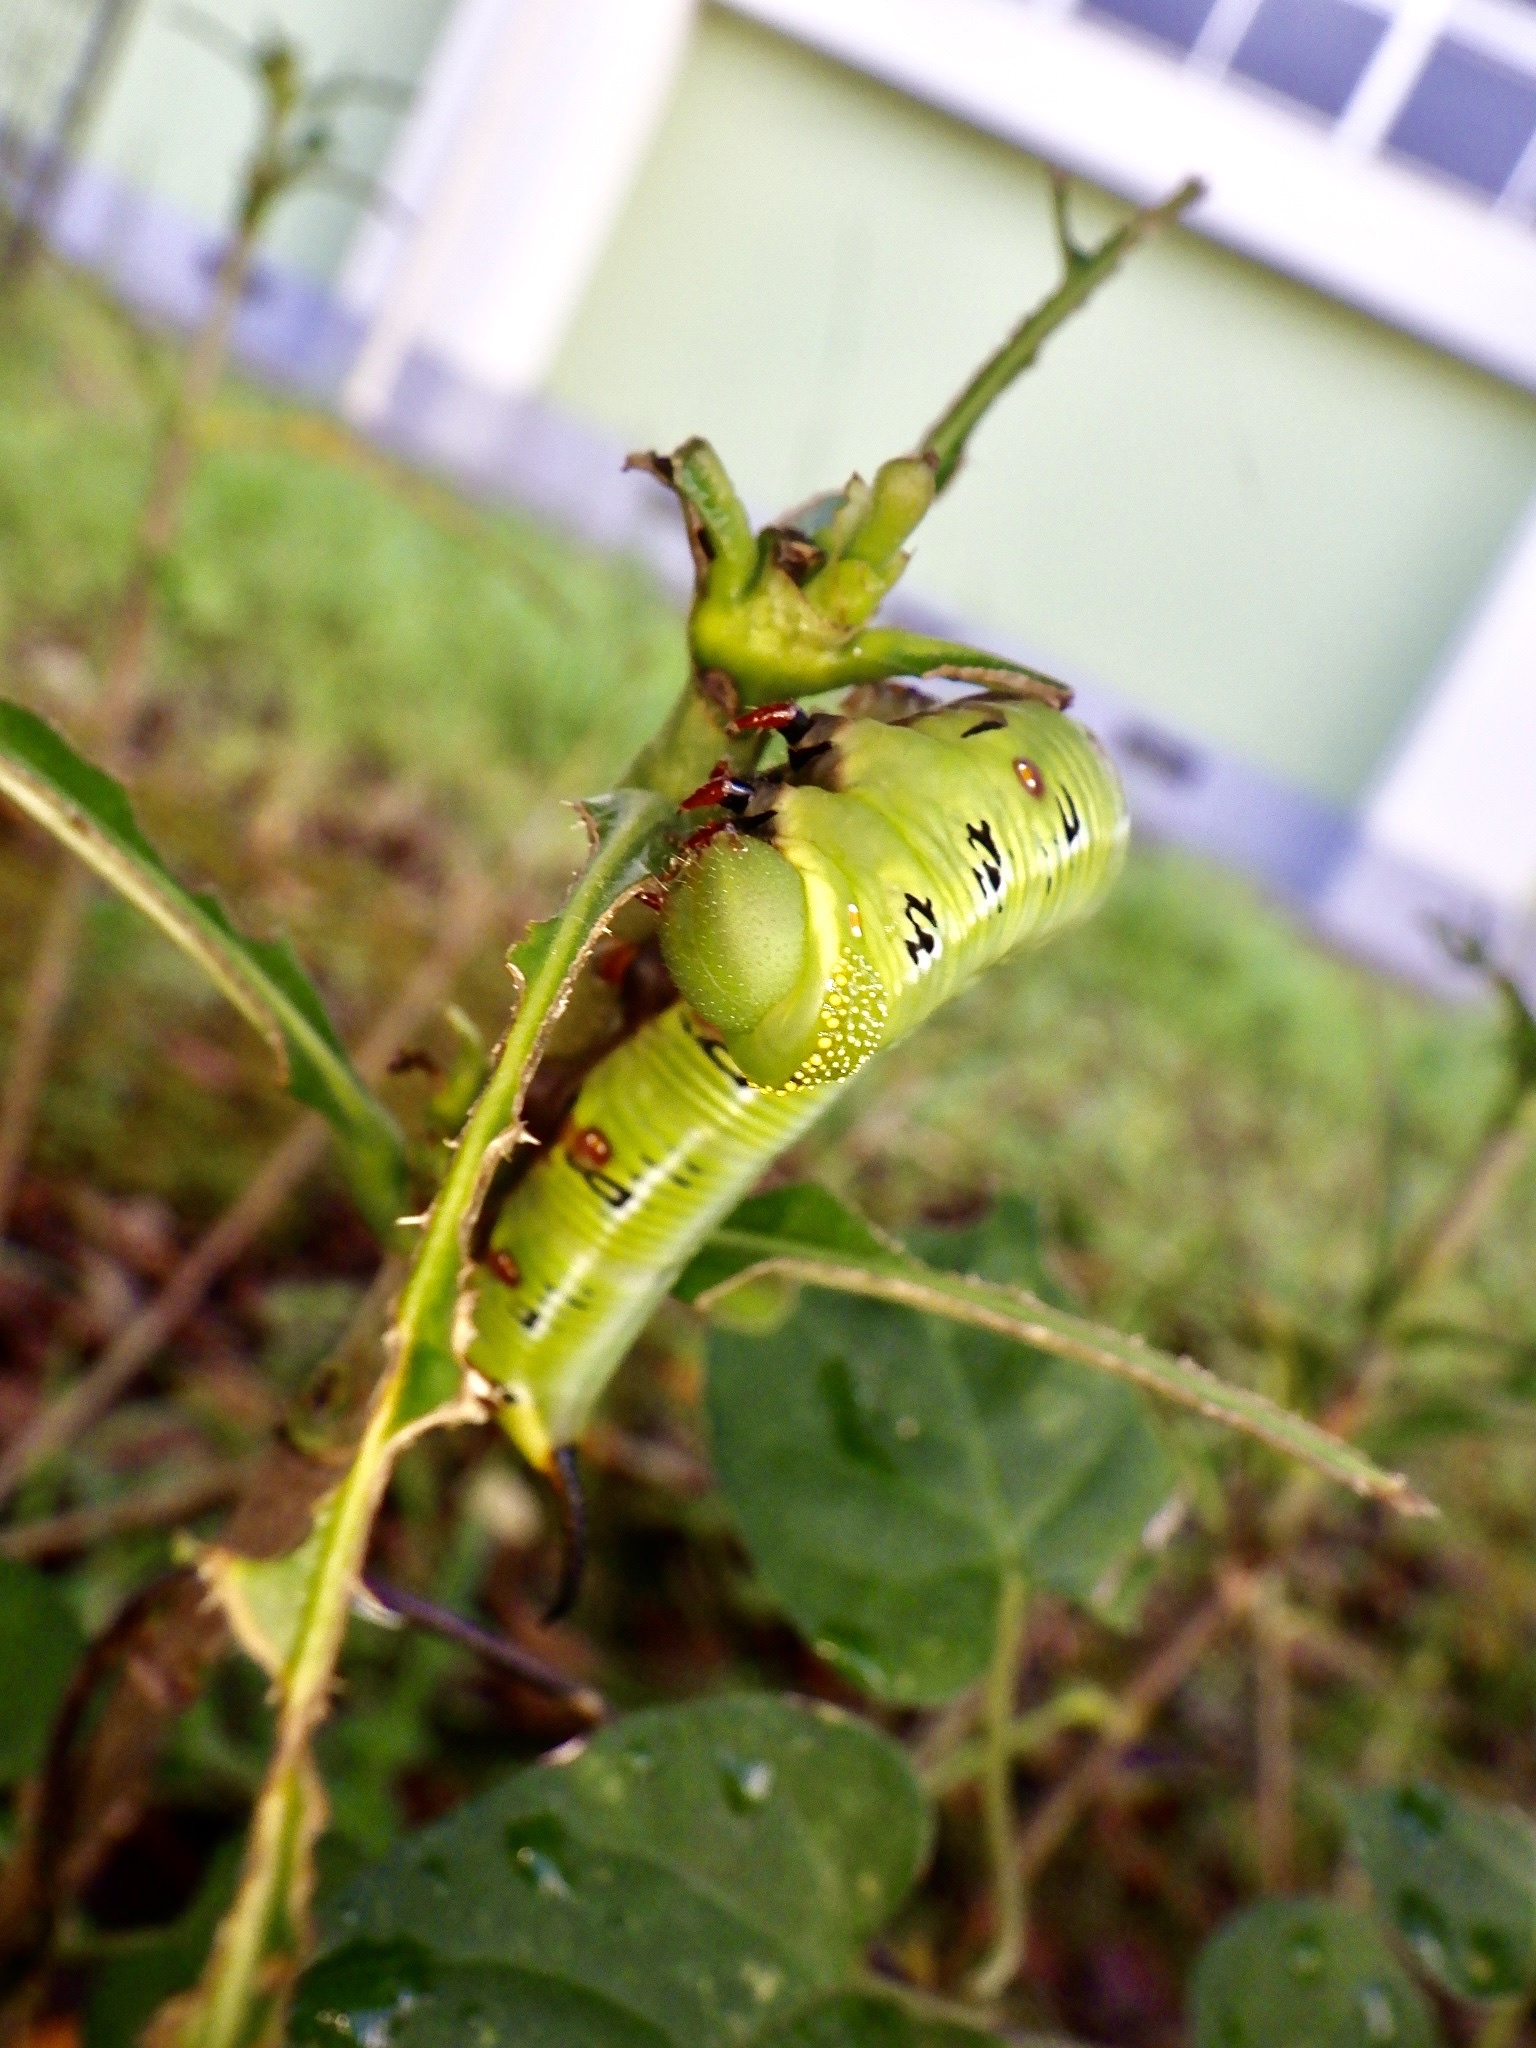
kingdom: Animalia
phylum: Arthropoda
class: Insecta
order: Lepidoptera
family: Sphingidae
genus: Cephonodes
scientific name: Cephonodes hylas
